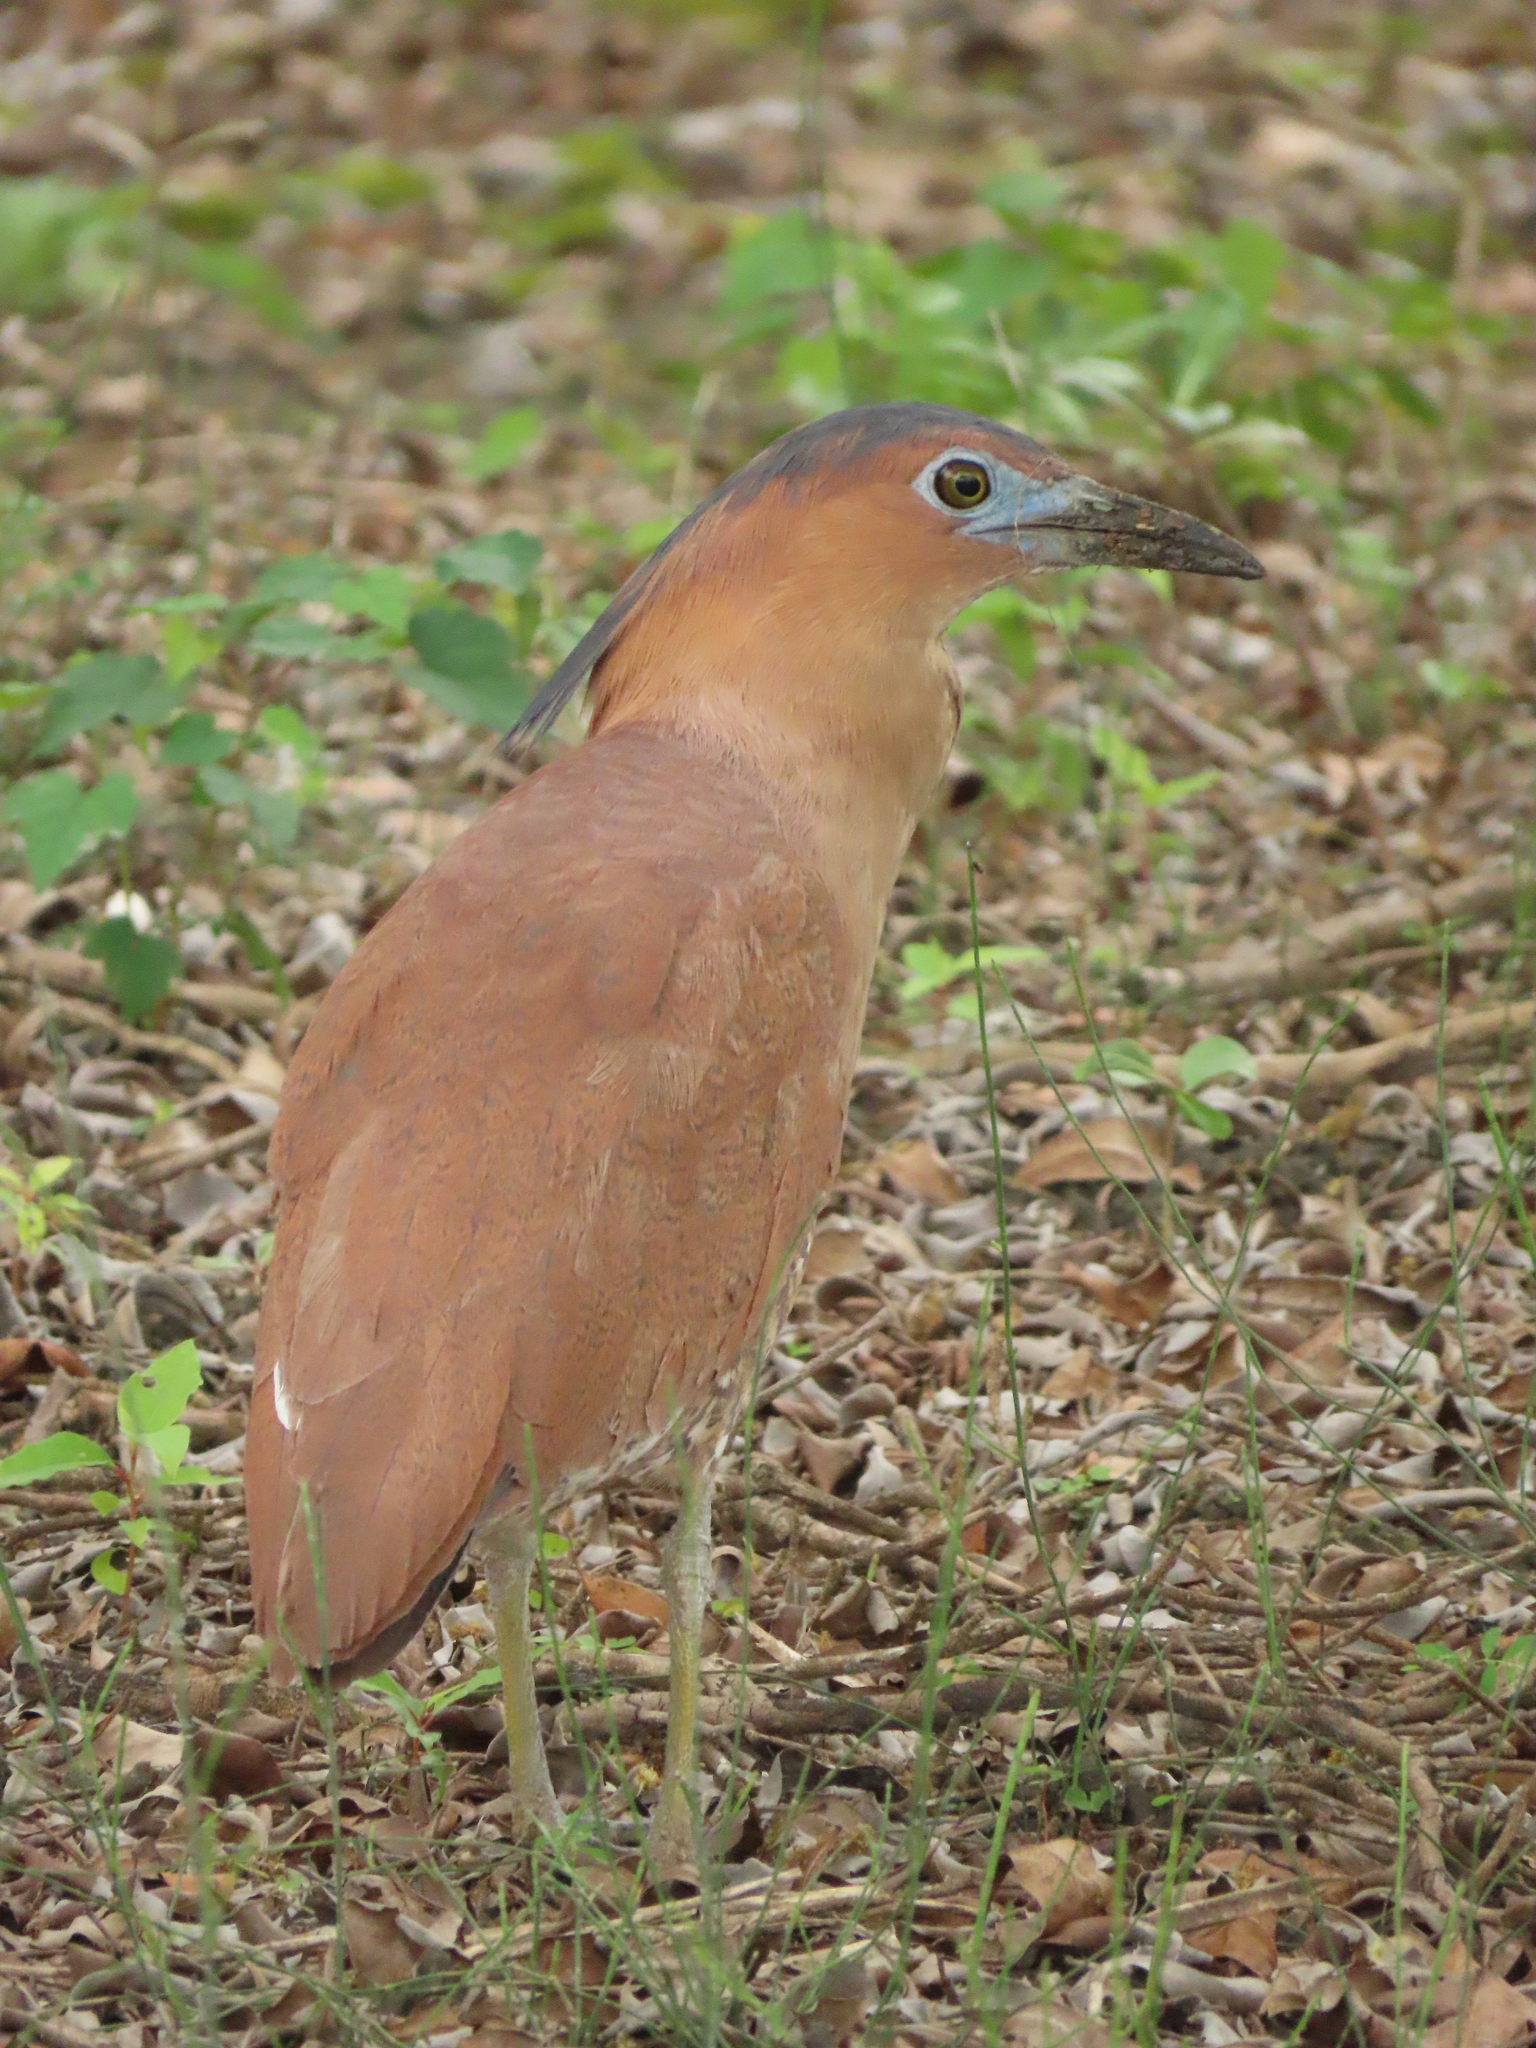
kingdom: Animalia
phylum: Chordata
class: Aves
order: Pelecaniformes
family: Ardeidae
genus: Gorsachius
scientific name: Gorsachius melanolophus
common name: Malayan night heron
